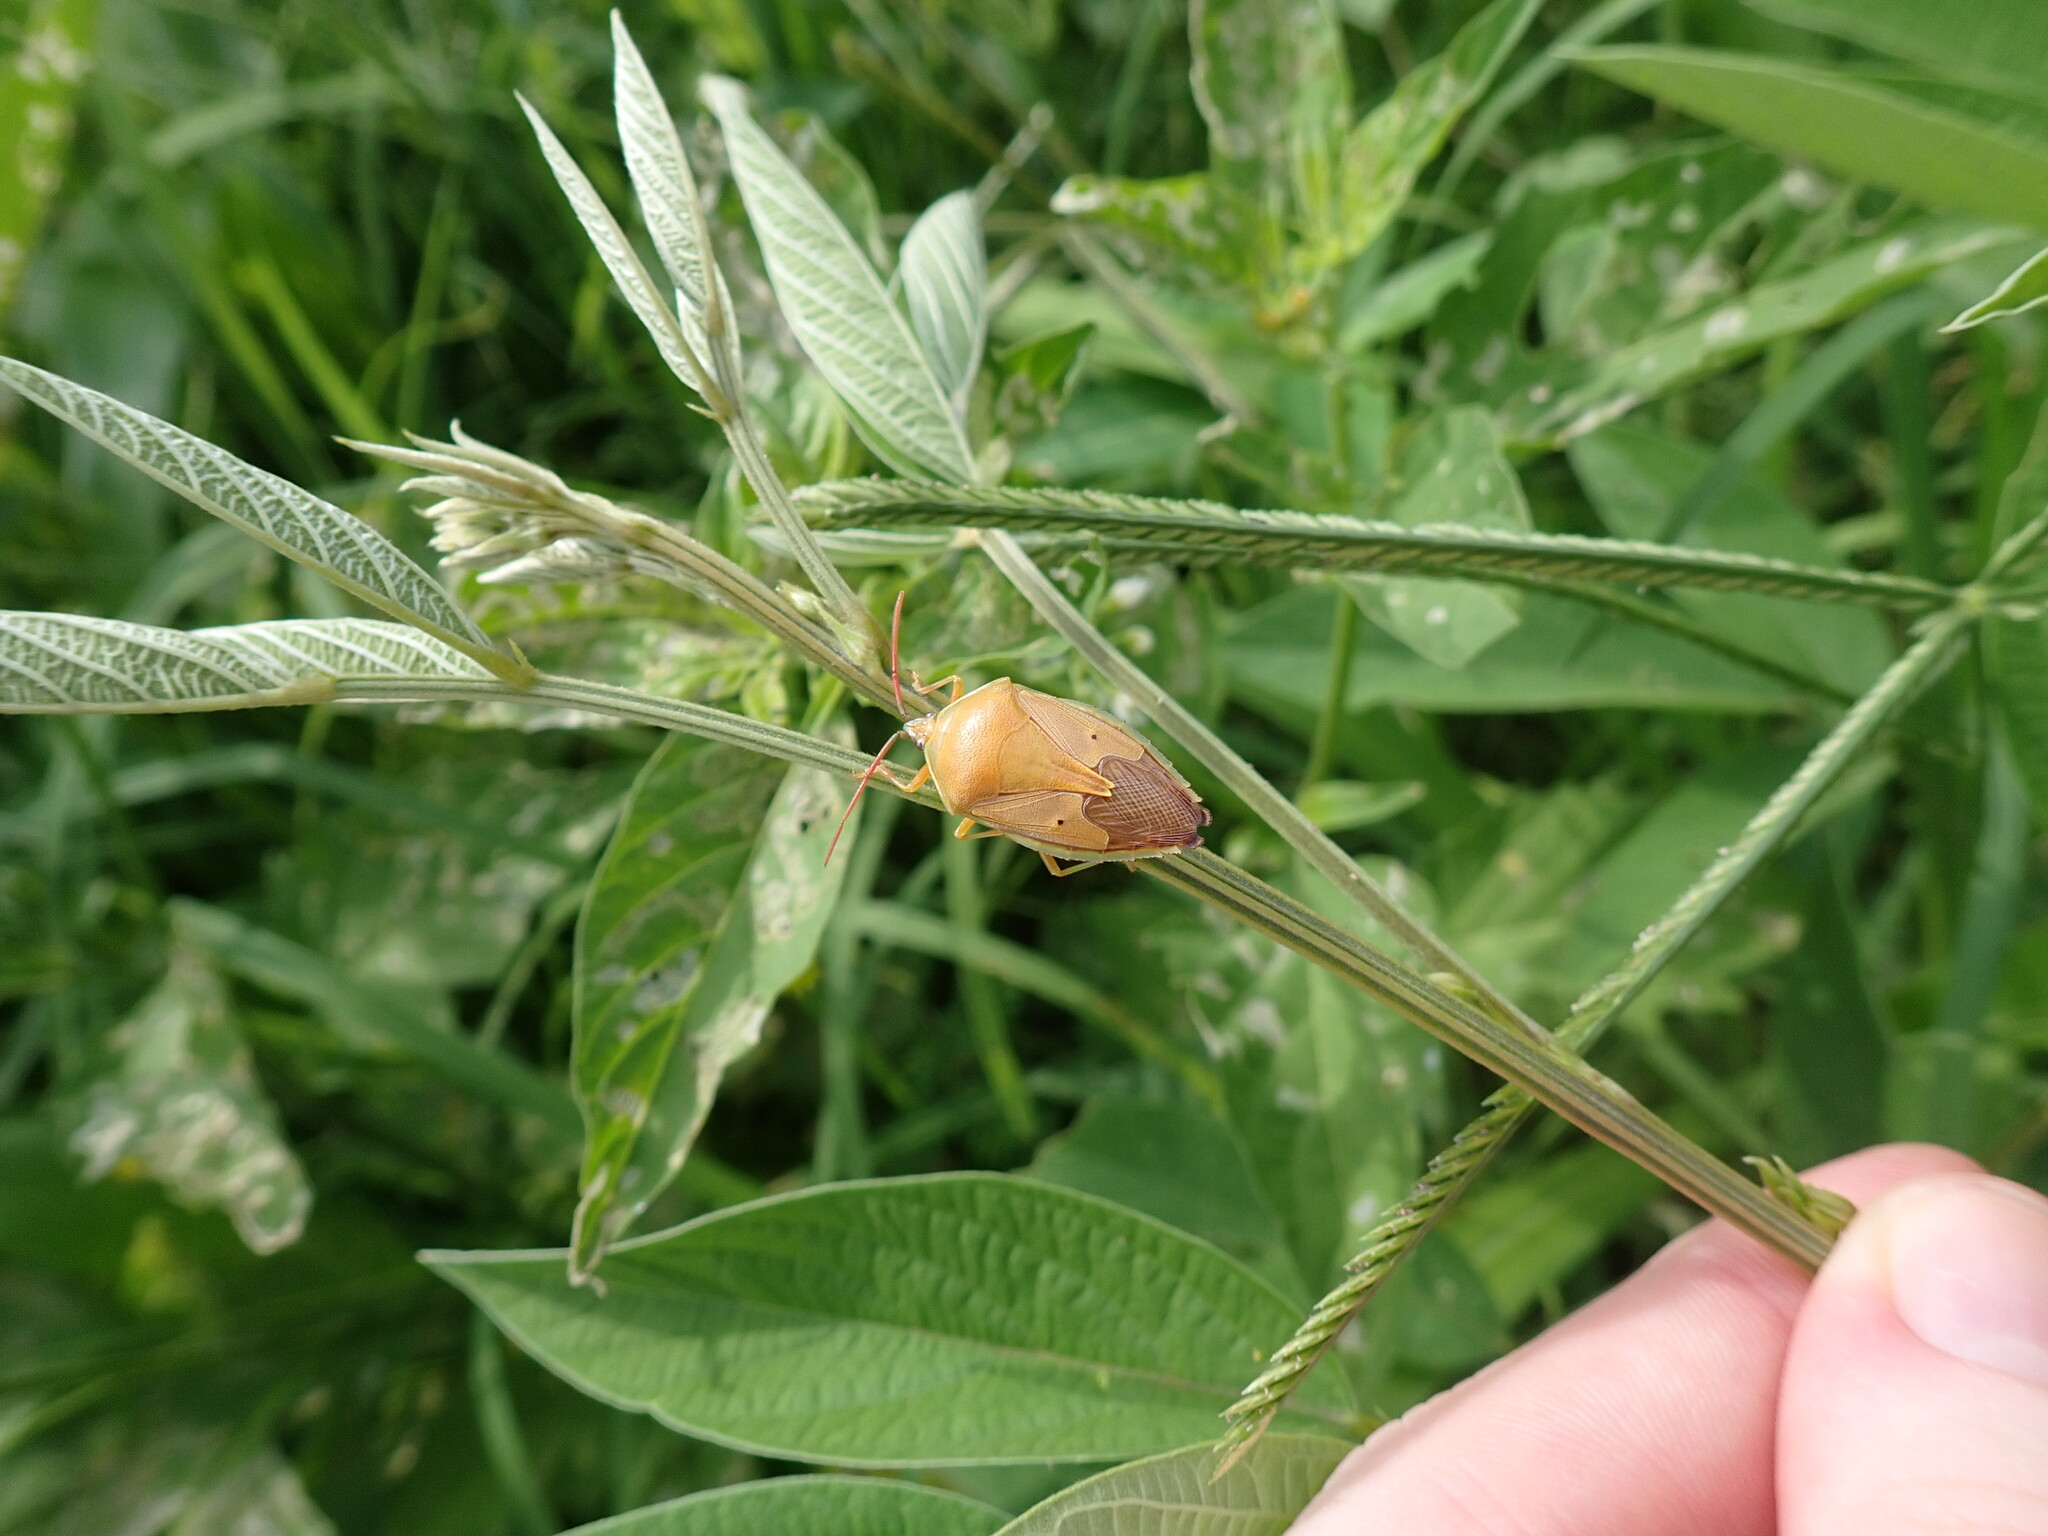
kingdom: Animalia
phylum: Arthropoda
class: Insecta
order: Hemiptera
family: Tessaratomidae
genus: Agapophyta
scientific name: Agapophyta bipunctata
